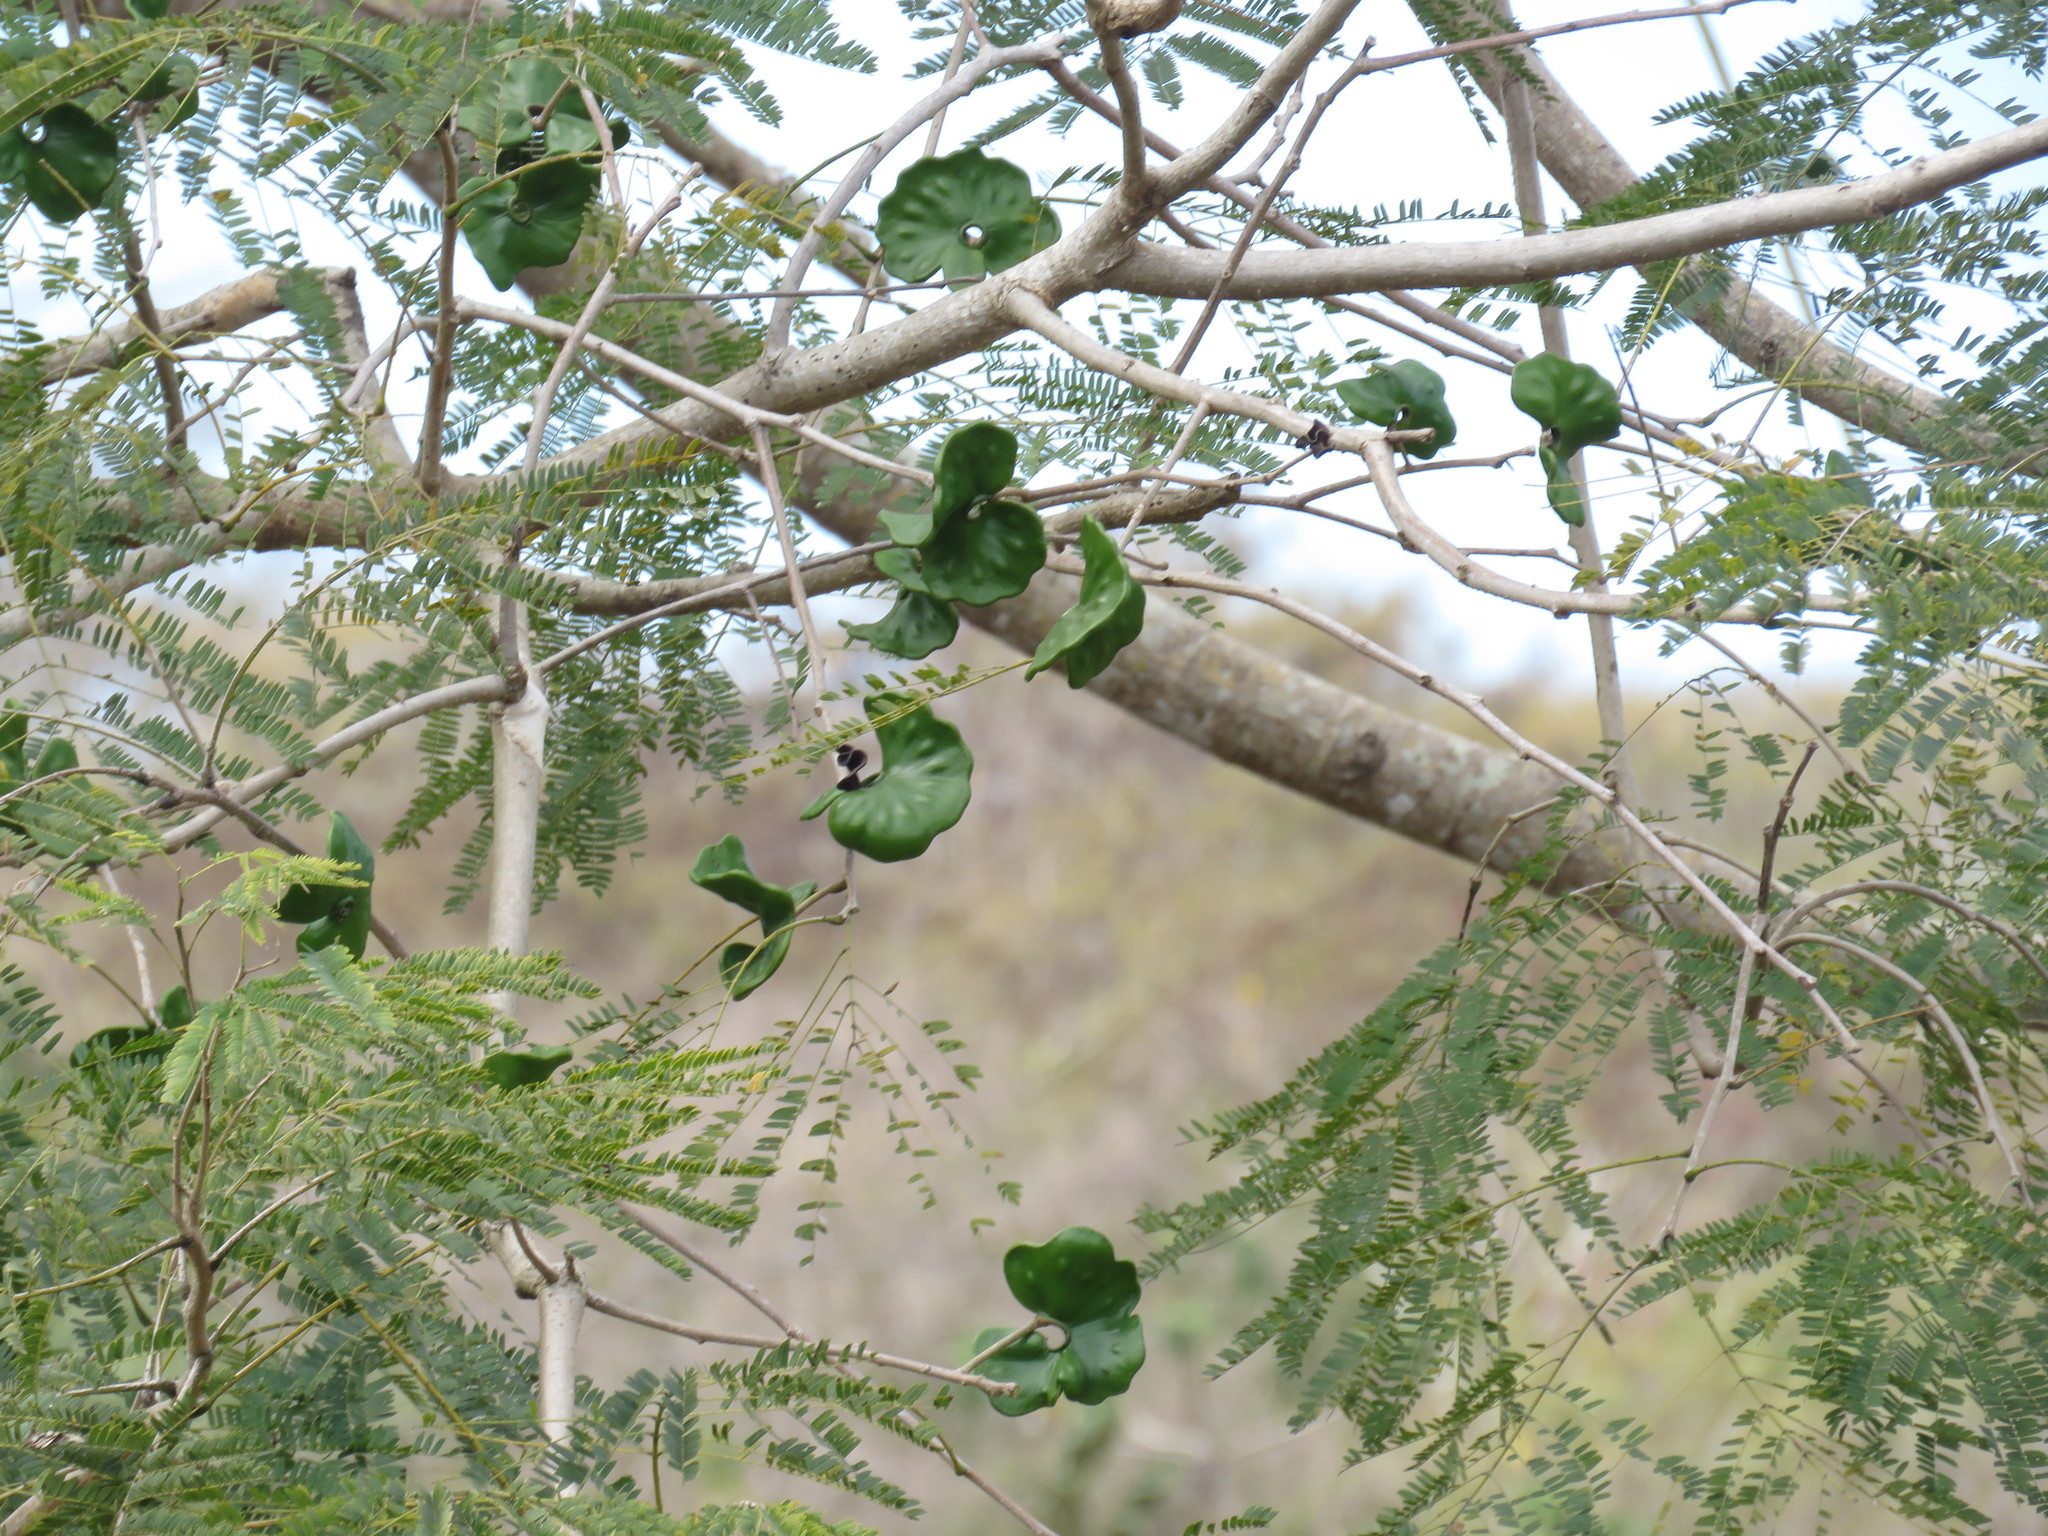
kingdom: Plantae
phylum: Tracheophyta
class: Magnoliopsida
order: Fabales
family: Fabaceae
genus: Enterolobium
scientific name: Enterolobium cyclocarpum
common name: Ear tree
